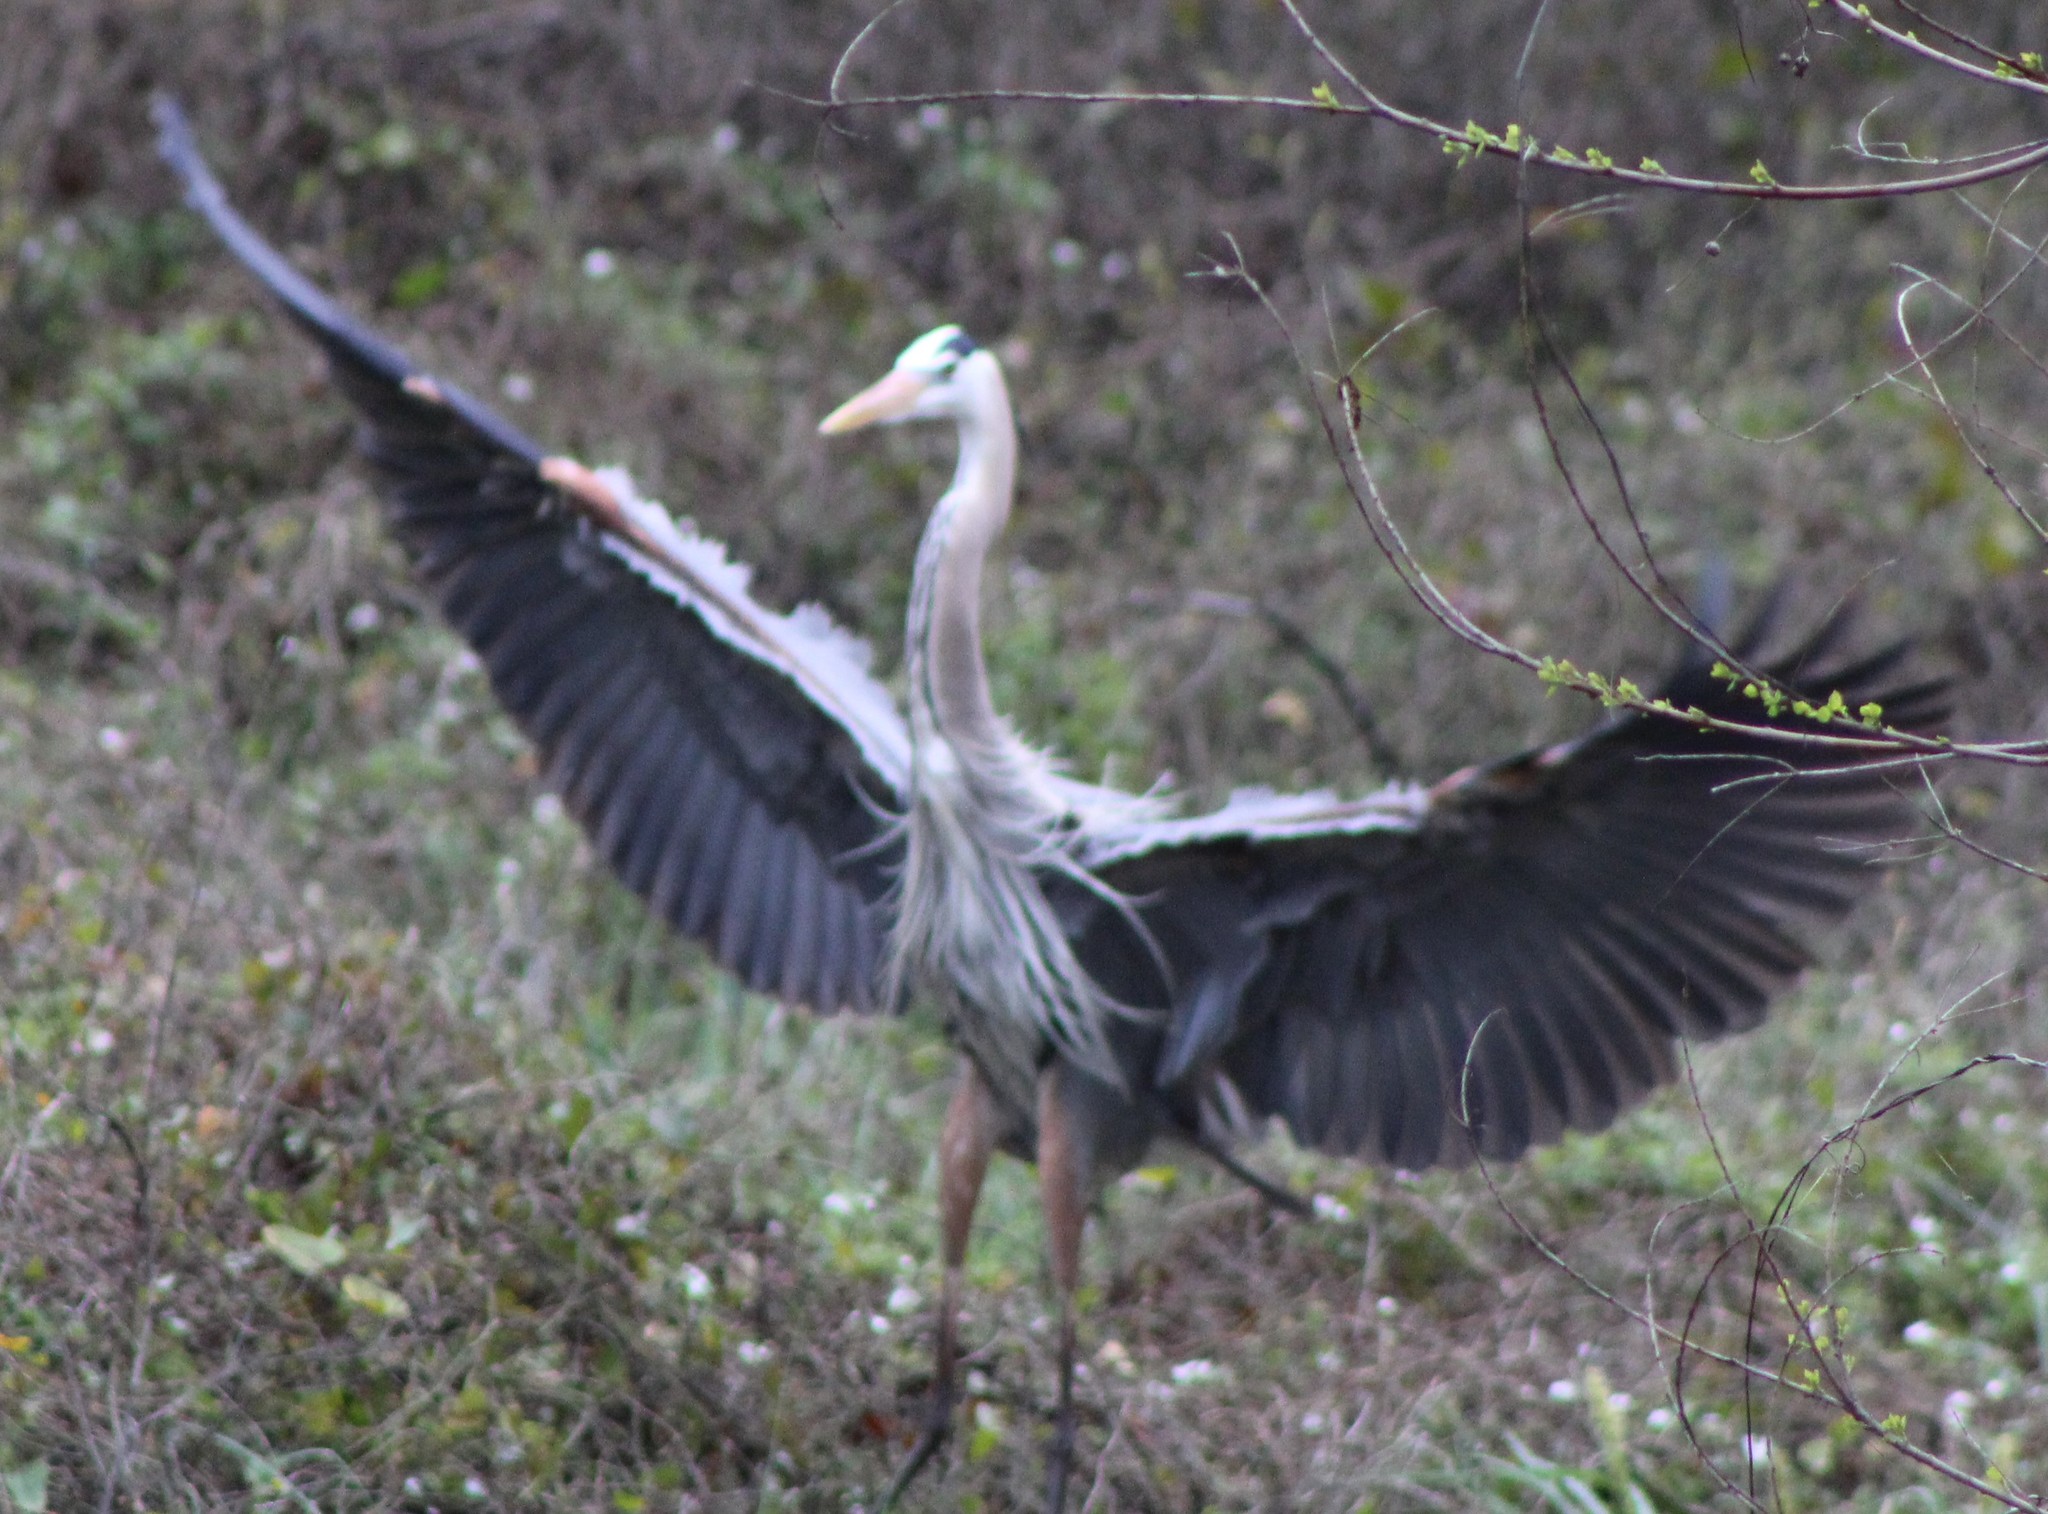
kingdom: Animalia
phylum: Chordata
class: Aves
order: Pelecaniformes
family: Ardeidae
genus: Ardea
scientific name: Ardea herodias
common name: Great blue heron
